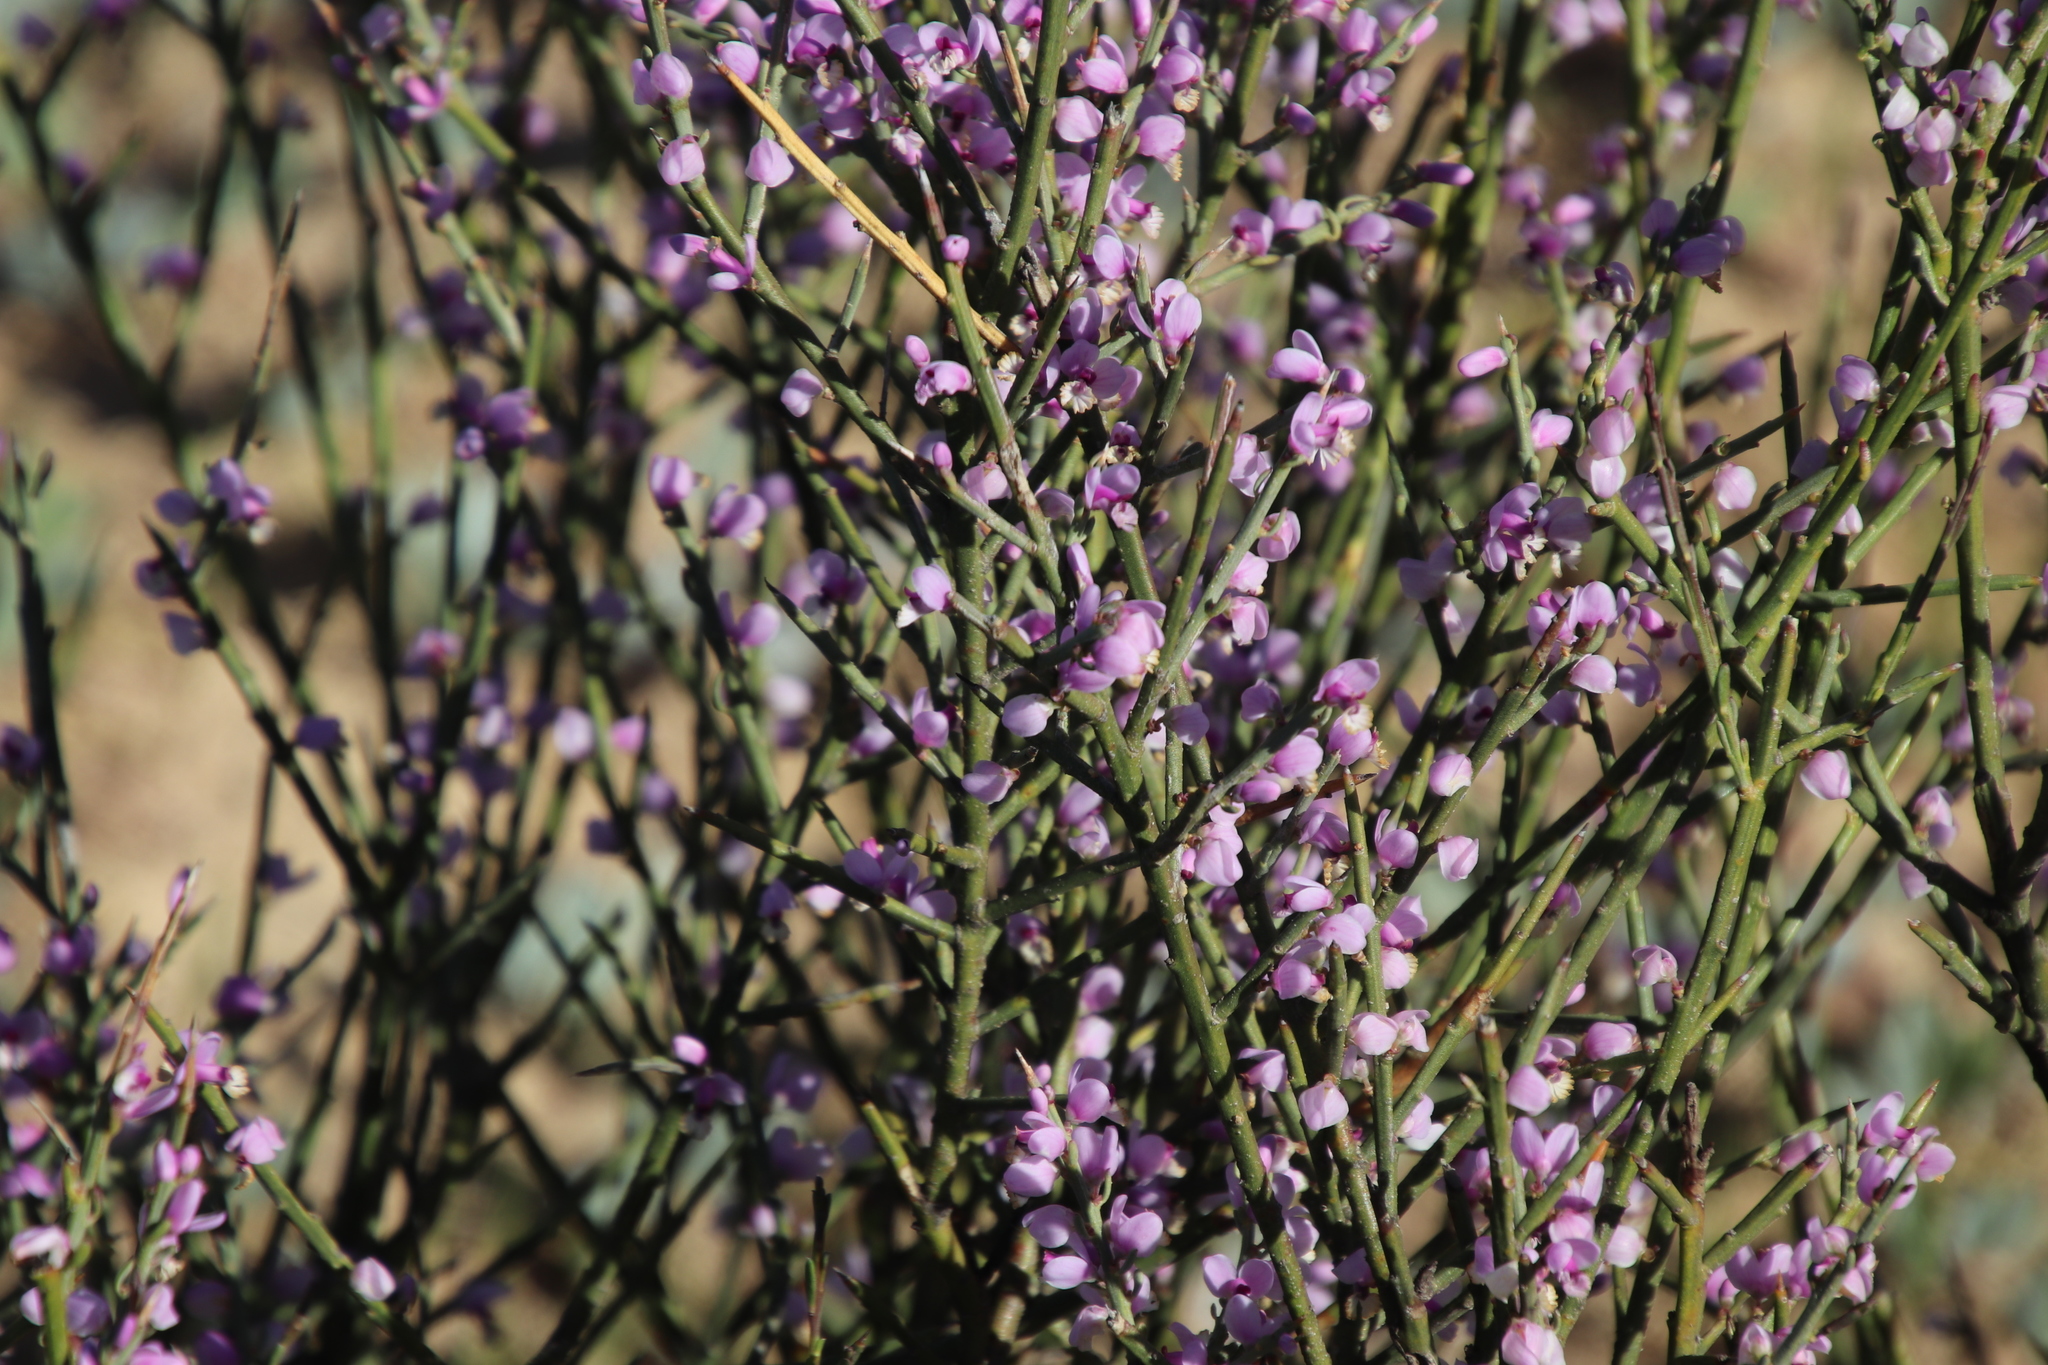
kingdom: Plantae
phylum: Tracheophyta
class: Magnoliopsida
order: Fabales
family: Polygalaceae
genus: Muraltia
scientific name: Muraltia spinosa
